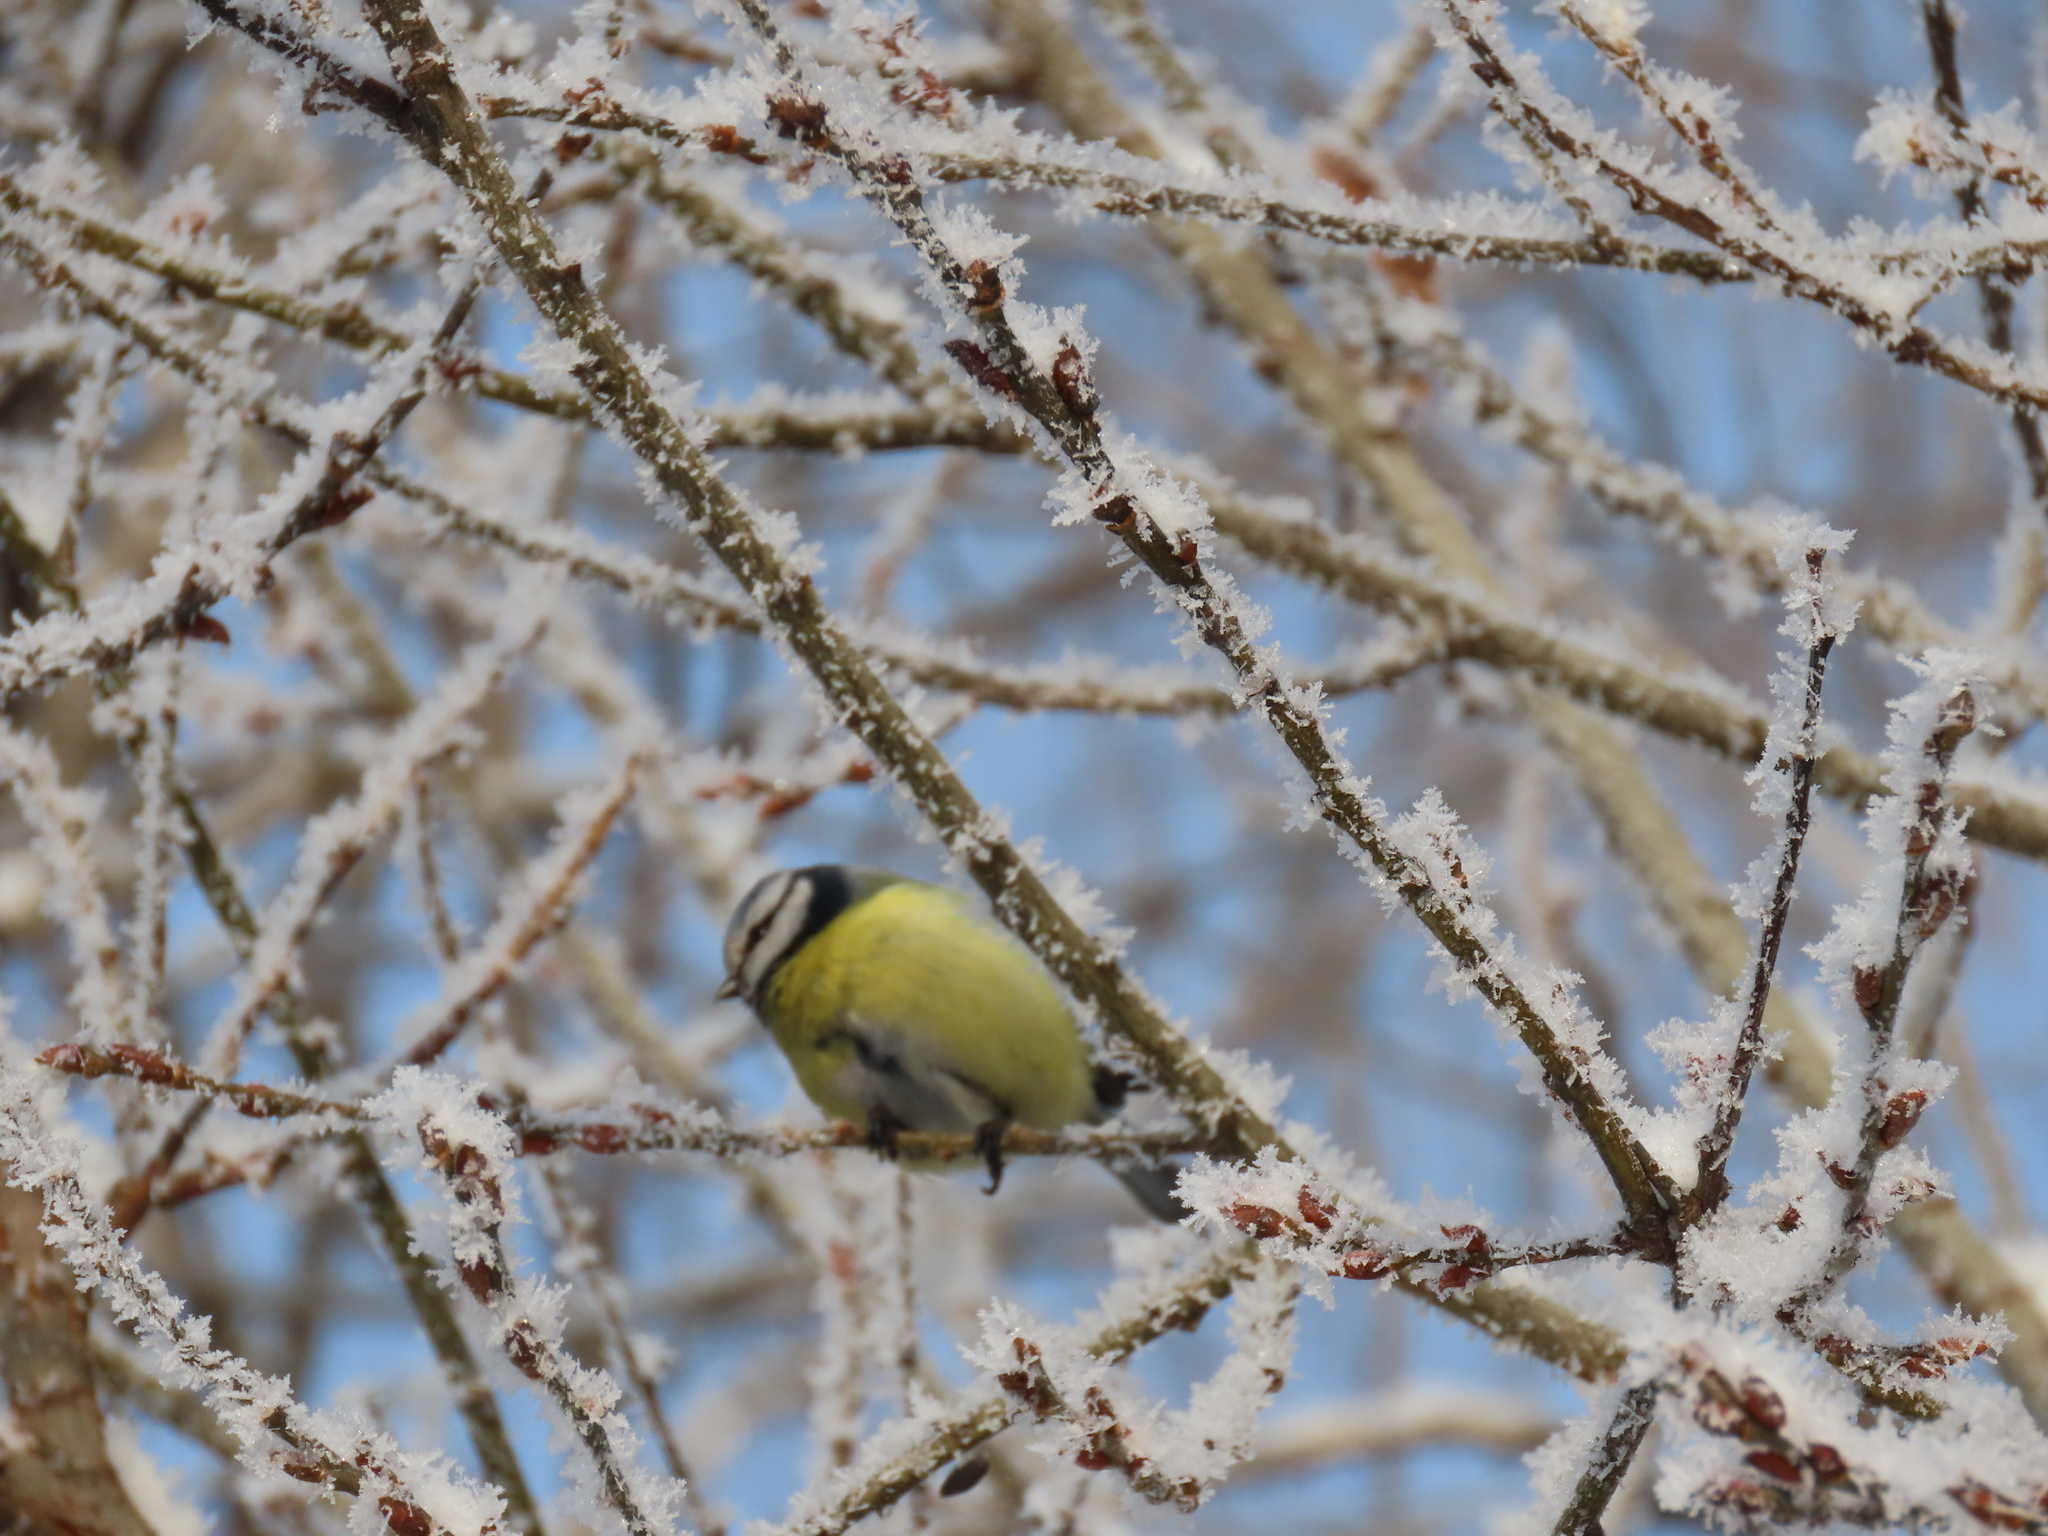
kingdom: Animalia
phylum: Chordata
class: Aves
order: Passeriformes
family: Paridae
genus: Cyanistes
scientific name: Cyanistes caeruleus
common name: Eurasian blue tit
